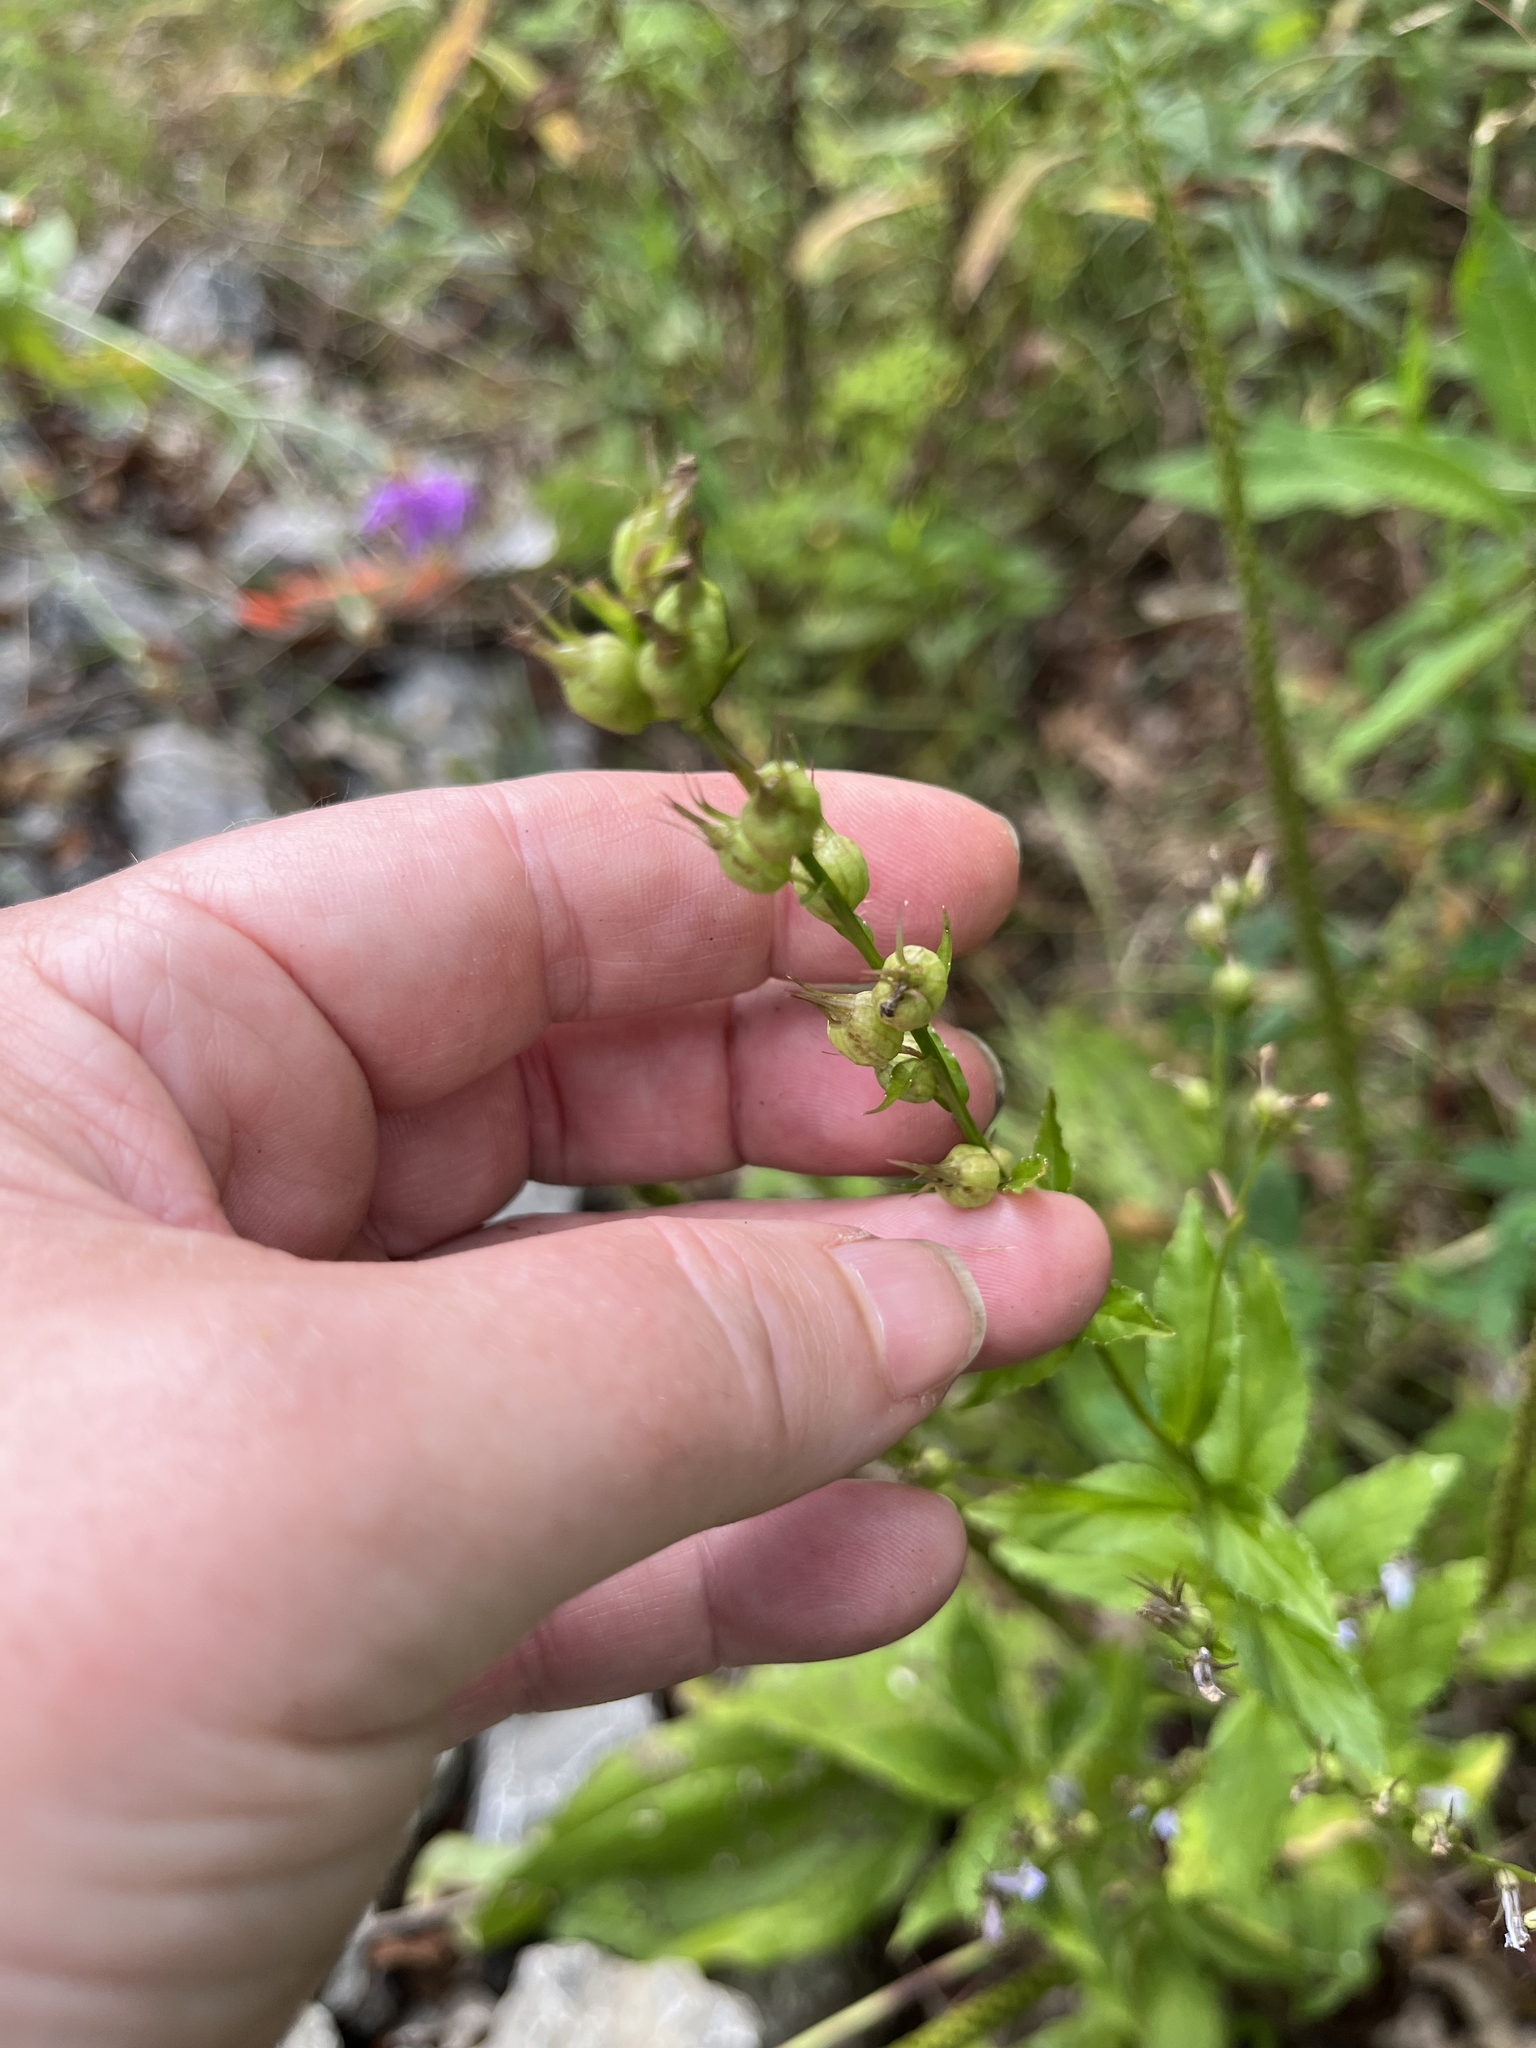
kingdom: Plantae
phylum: Tracheophyta
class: Magnoliopsida
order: Asterales
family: Campanulaceae
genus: Lobelia
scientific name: Lobelia inflata
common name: Indian tobacco
